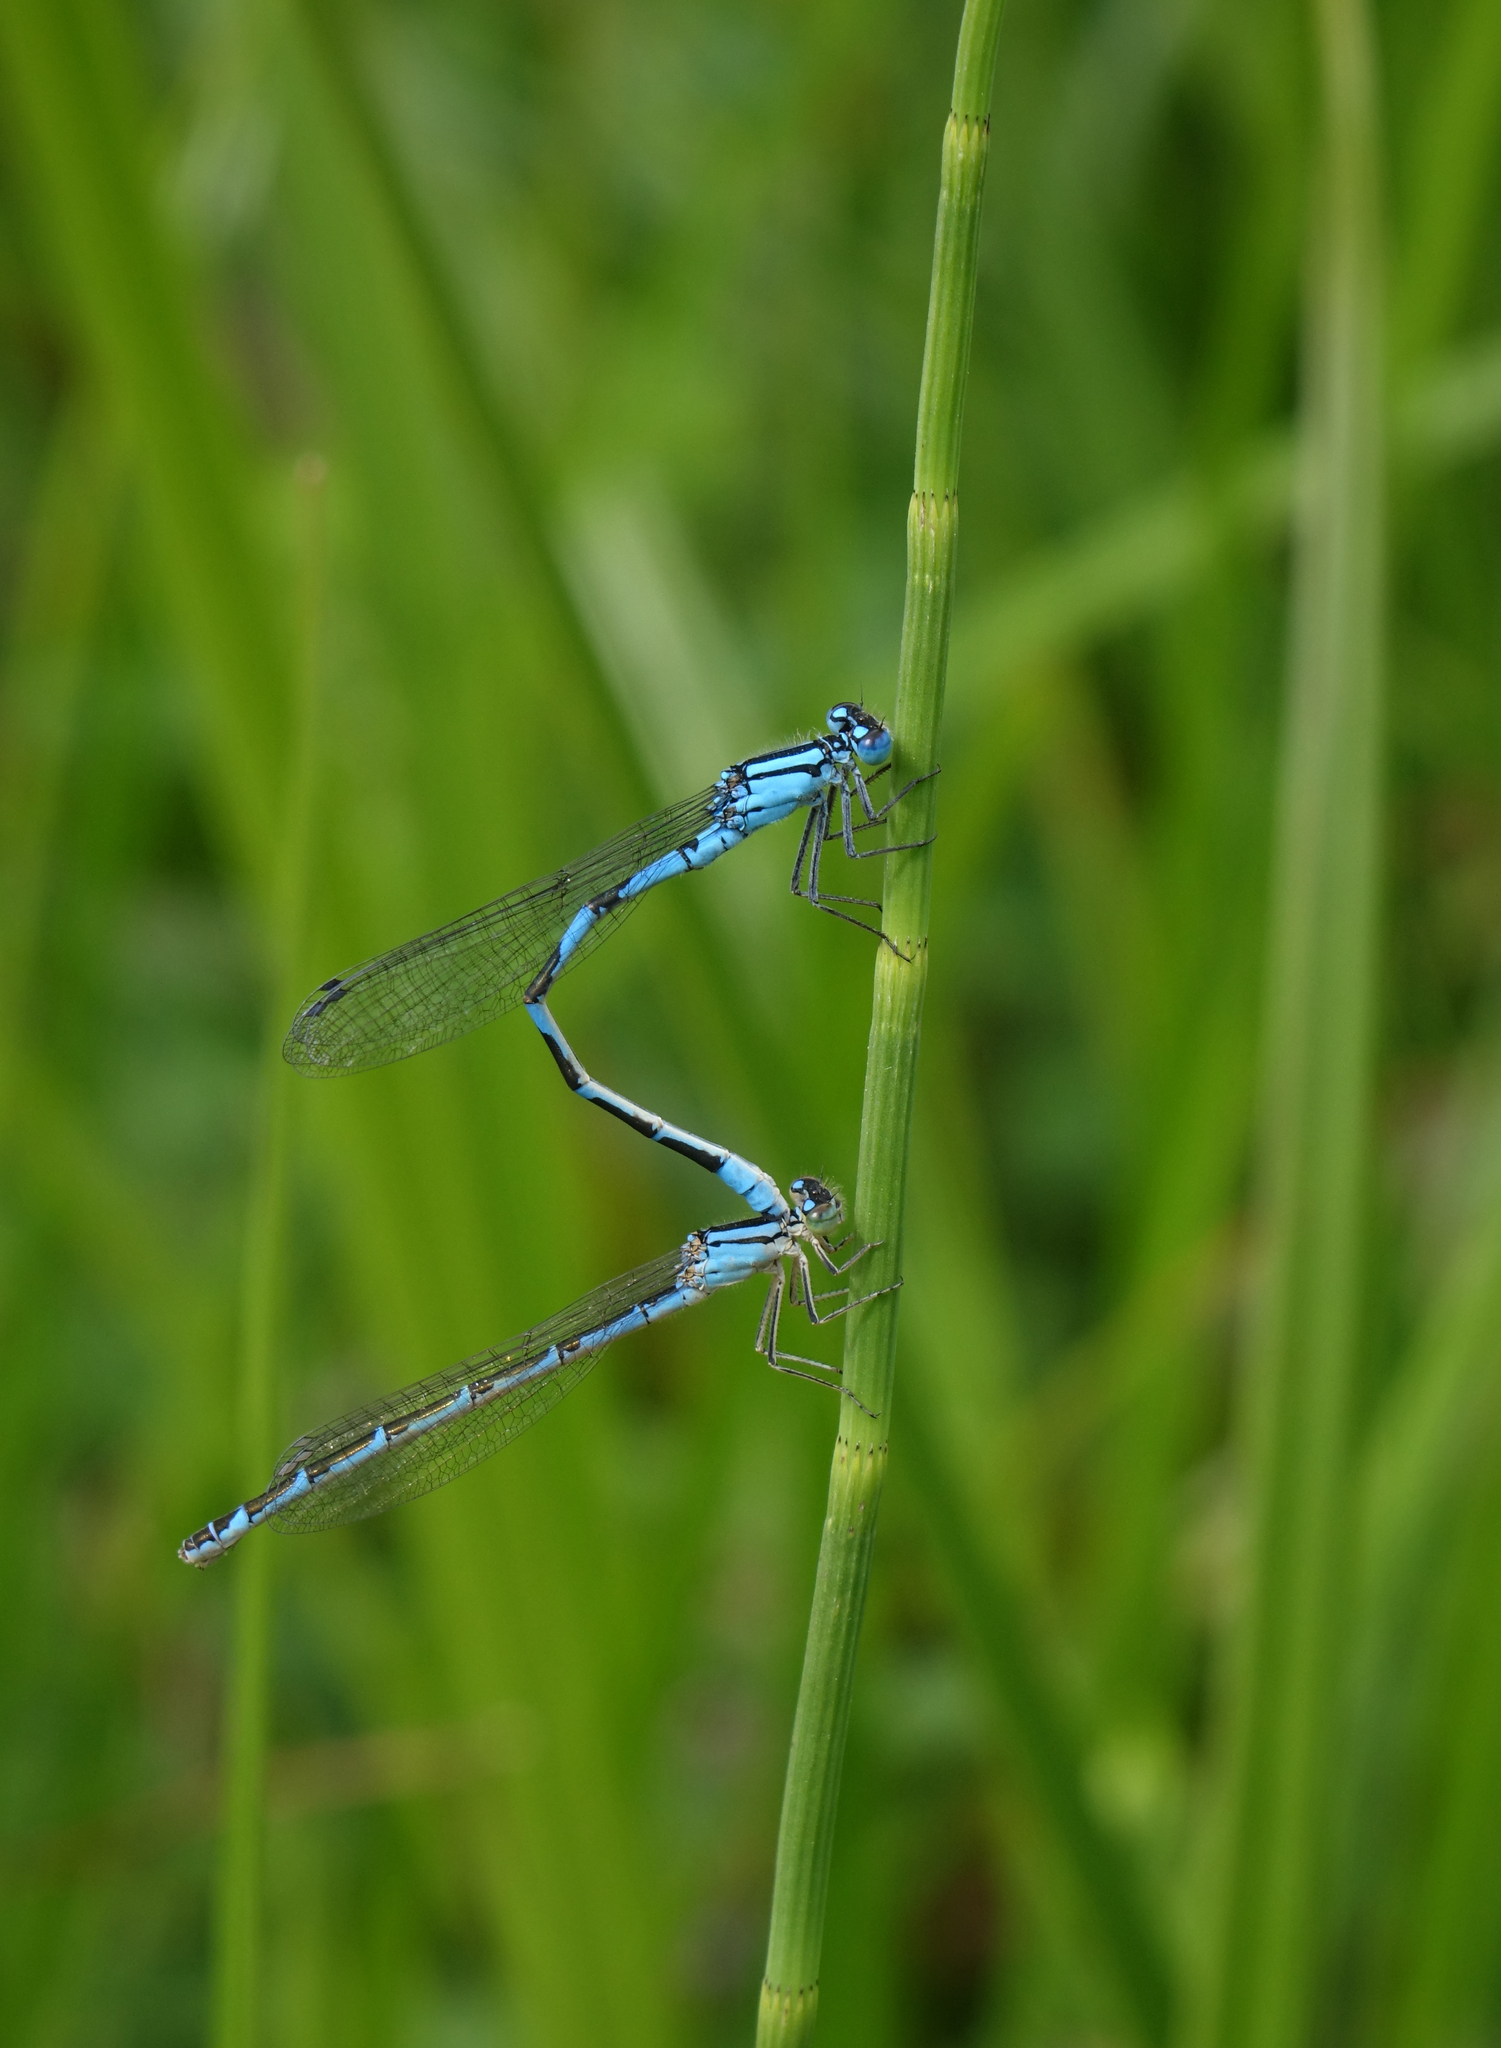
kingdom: Animalia
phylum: Arthropoda
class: Insecta
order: Odonata
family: Coenagrionidae
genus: Enallagma
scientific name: Enallagma cyathigerum
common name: Common blue damselfly
